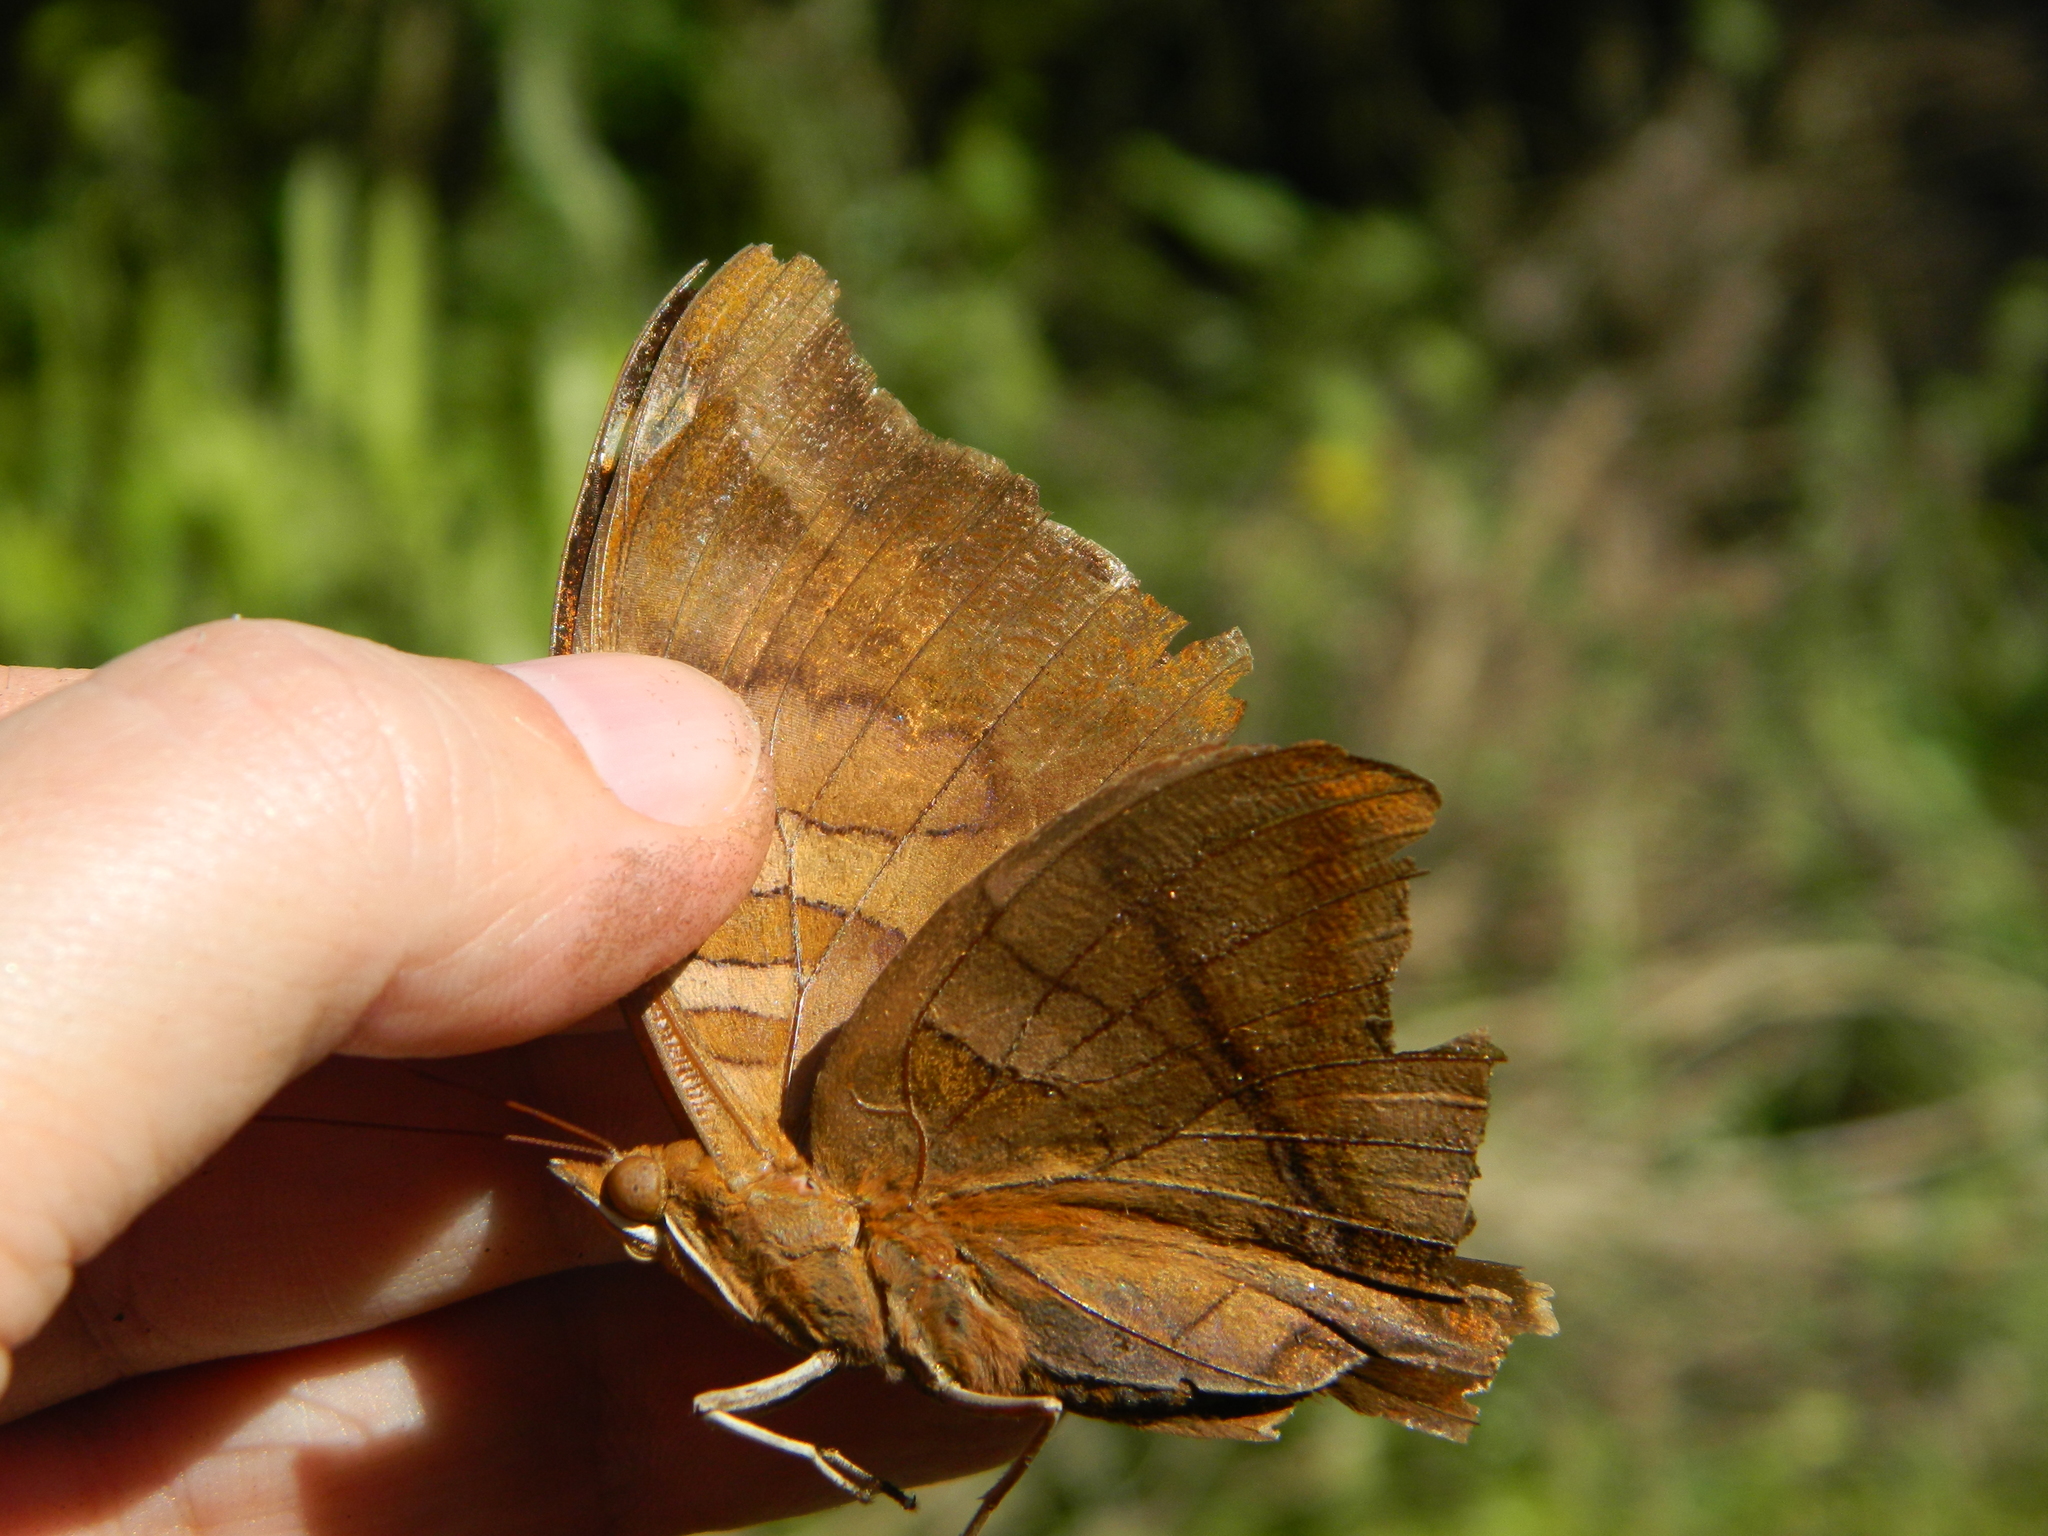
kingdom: Animalia
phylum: Arthropoda
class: Insecta
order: Lepidoptera
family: Nymphalidae
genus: Historis
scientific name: Historis odius
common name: Orion cecropian
